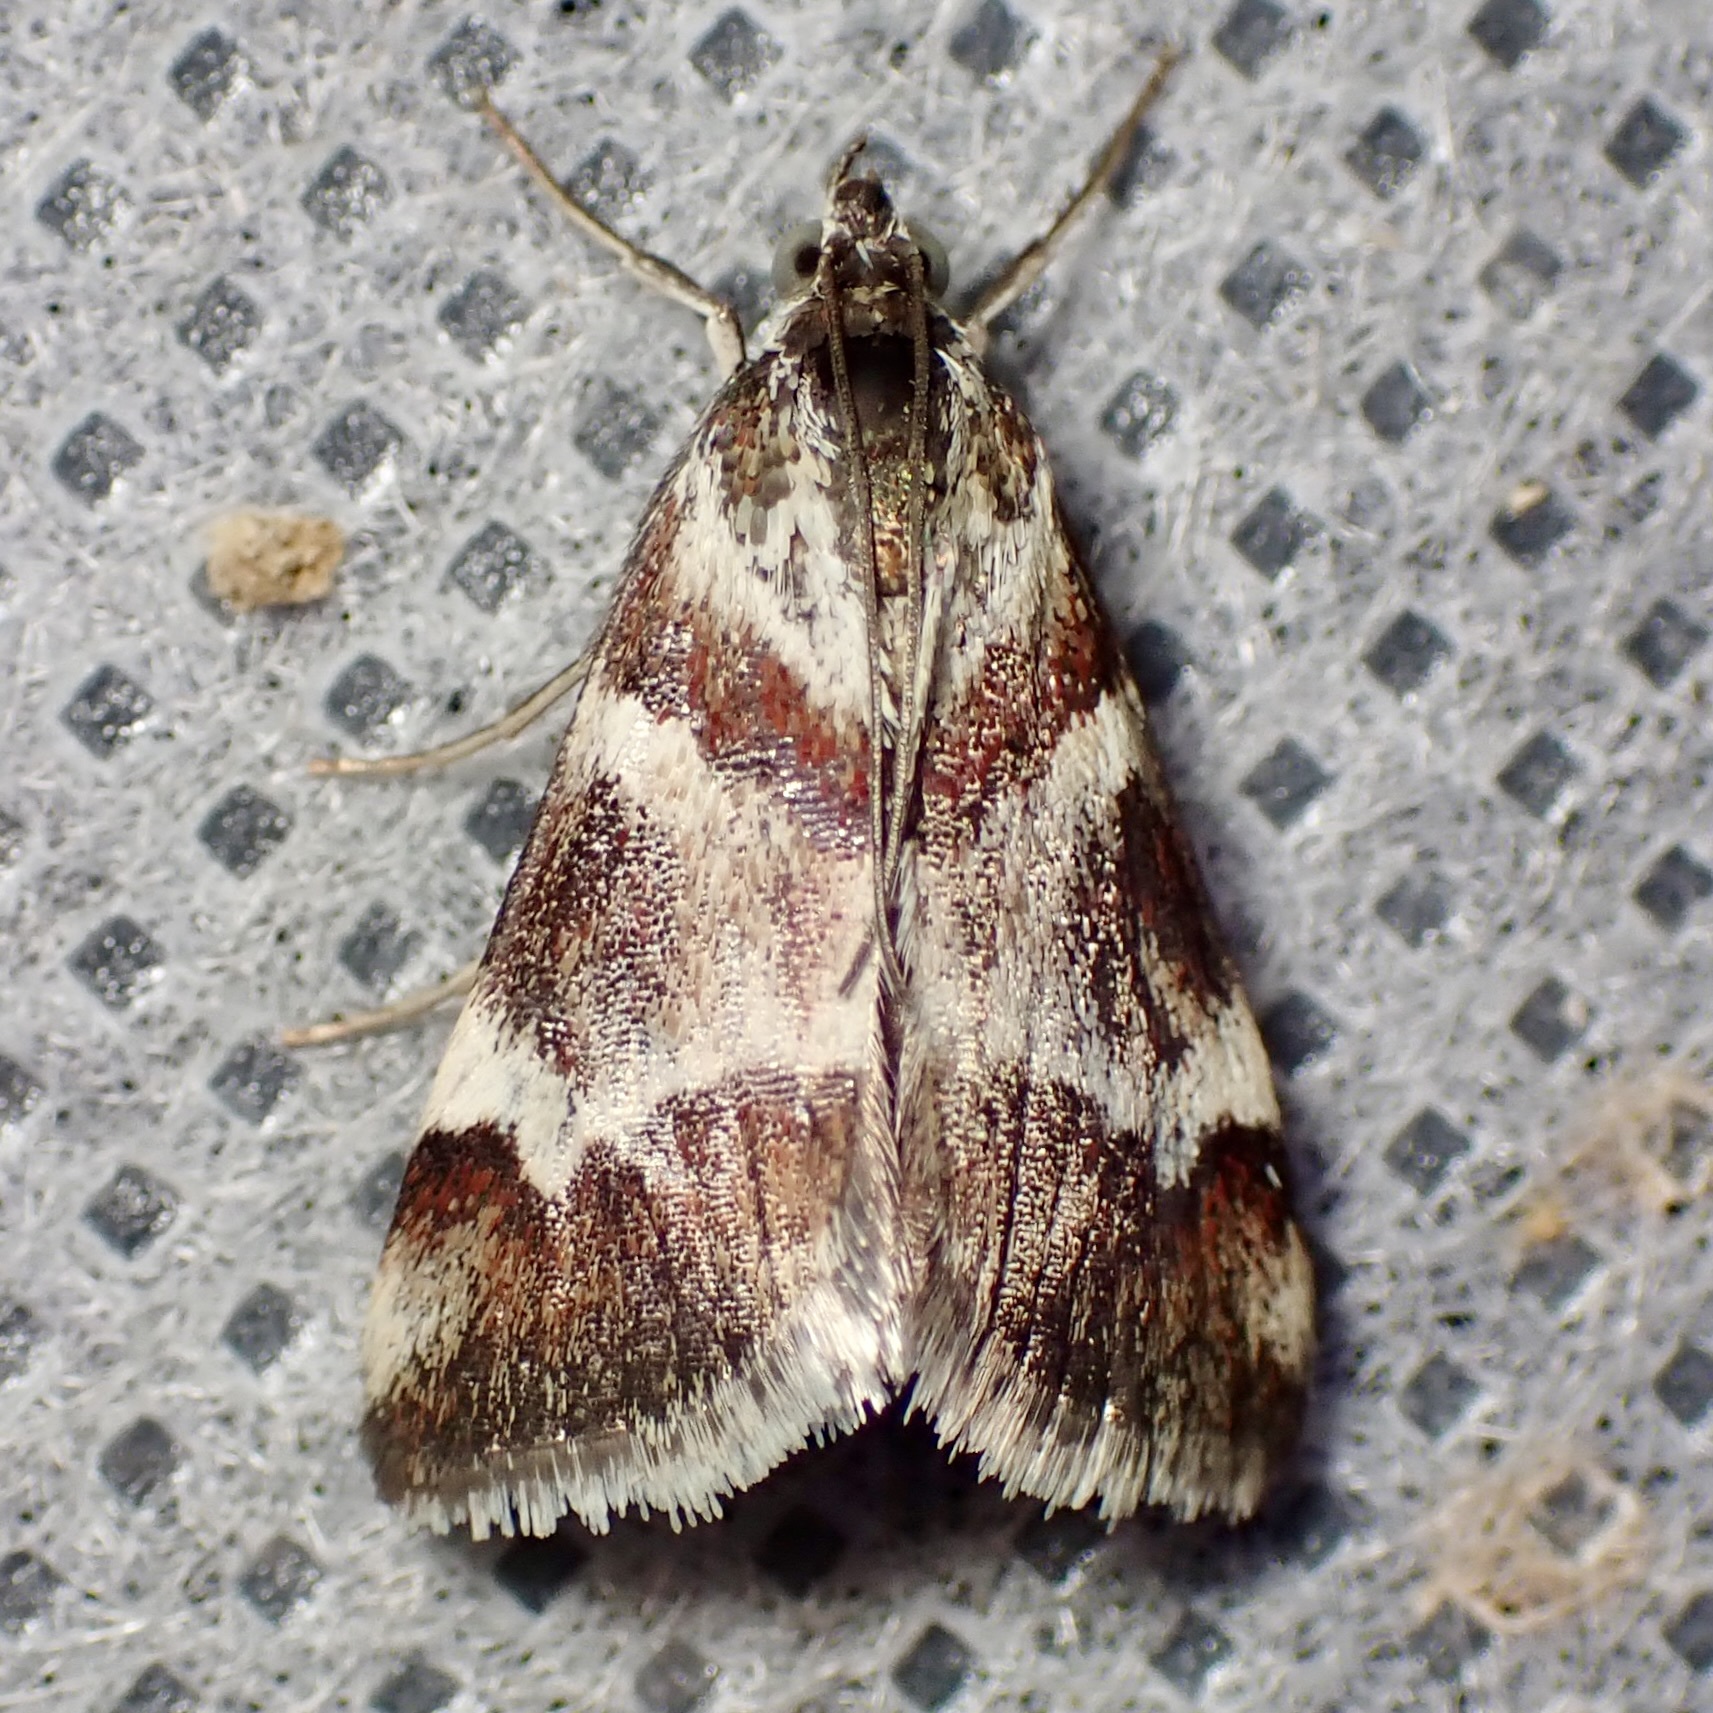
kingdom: Animalia
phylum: Arthropoda
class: Insecta
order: Lepidoptera
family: Crambidae
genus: Noctuelia
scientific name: Noctuelia Mimoschinia rufofascialis
